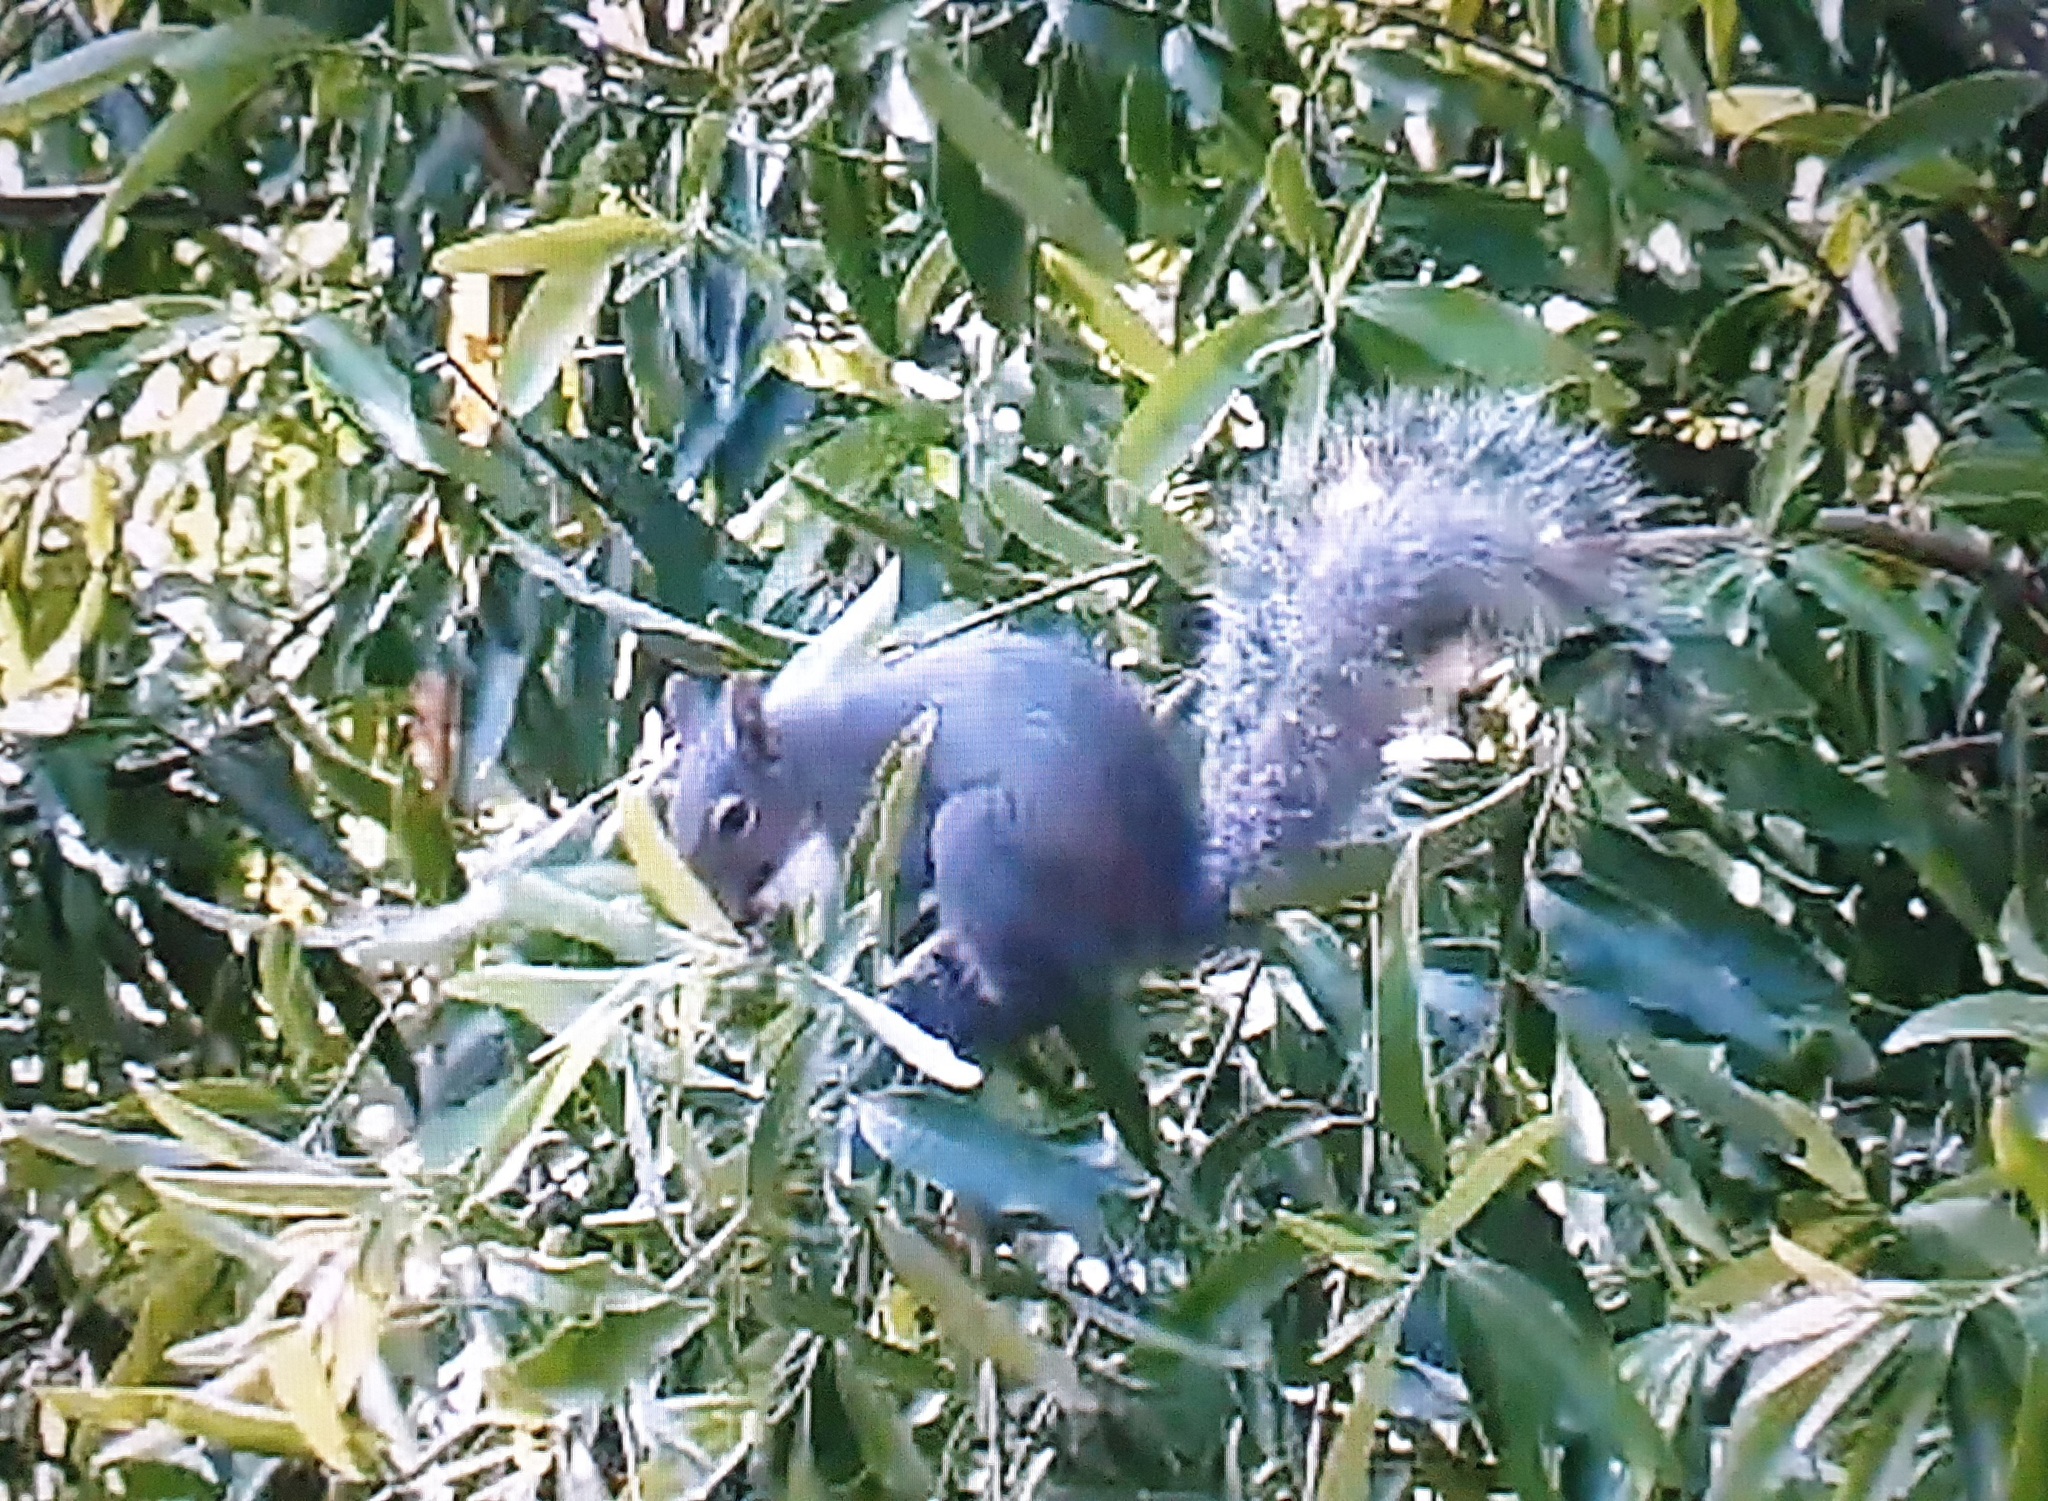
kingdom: Animalia
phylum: Chordata
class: Mammalia
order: Rodentia
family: Sciuridae
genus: Sciurus
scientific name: Sciurus griseus
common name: Western gray squirrel
